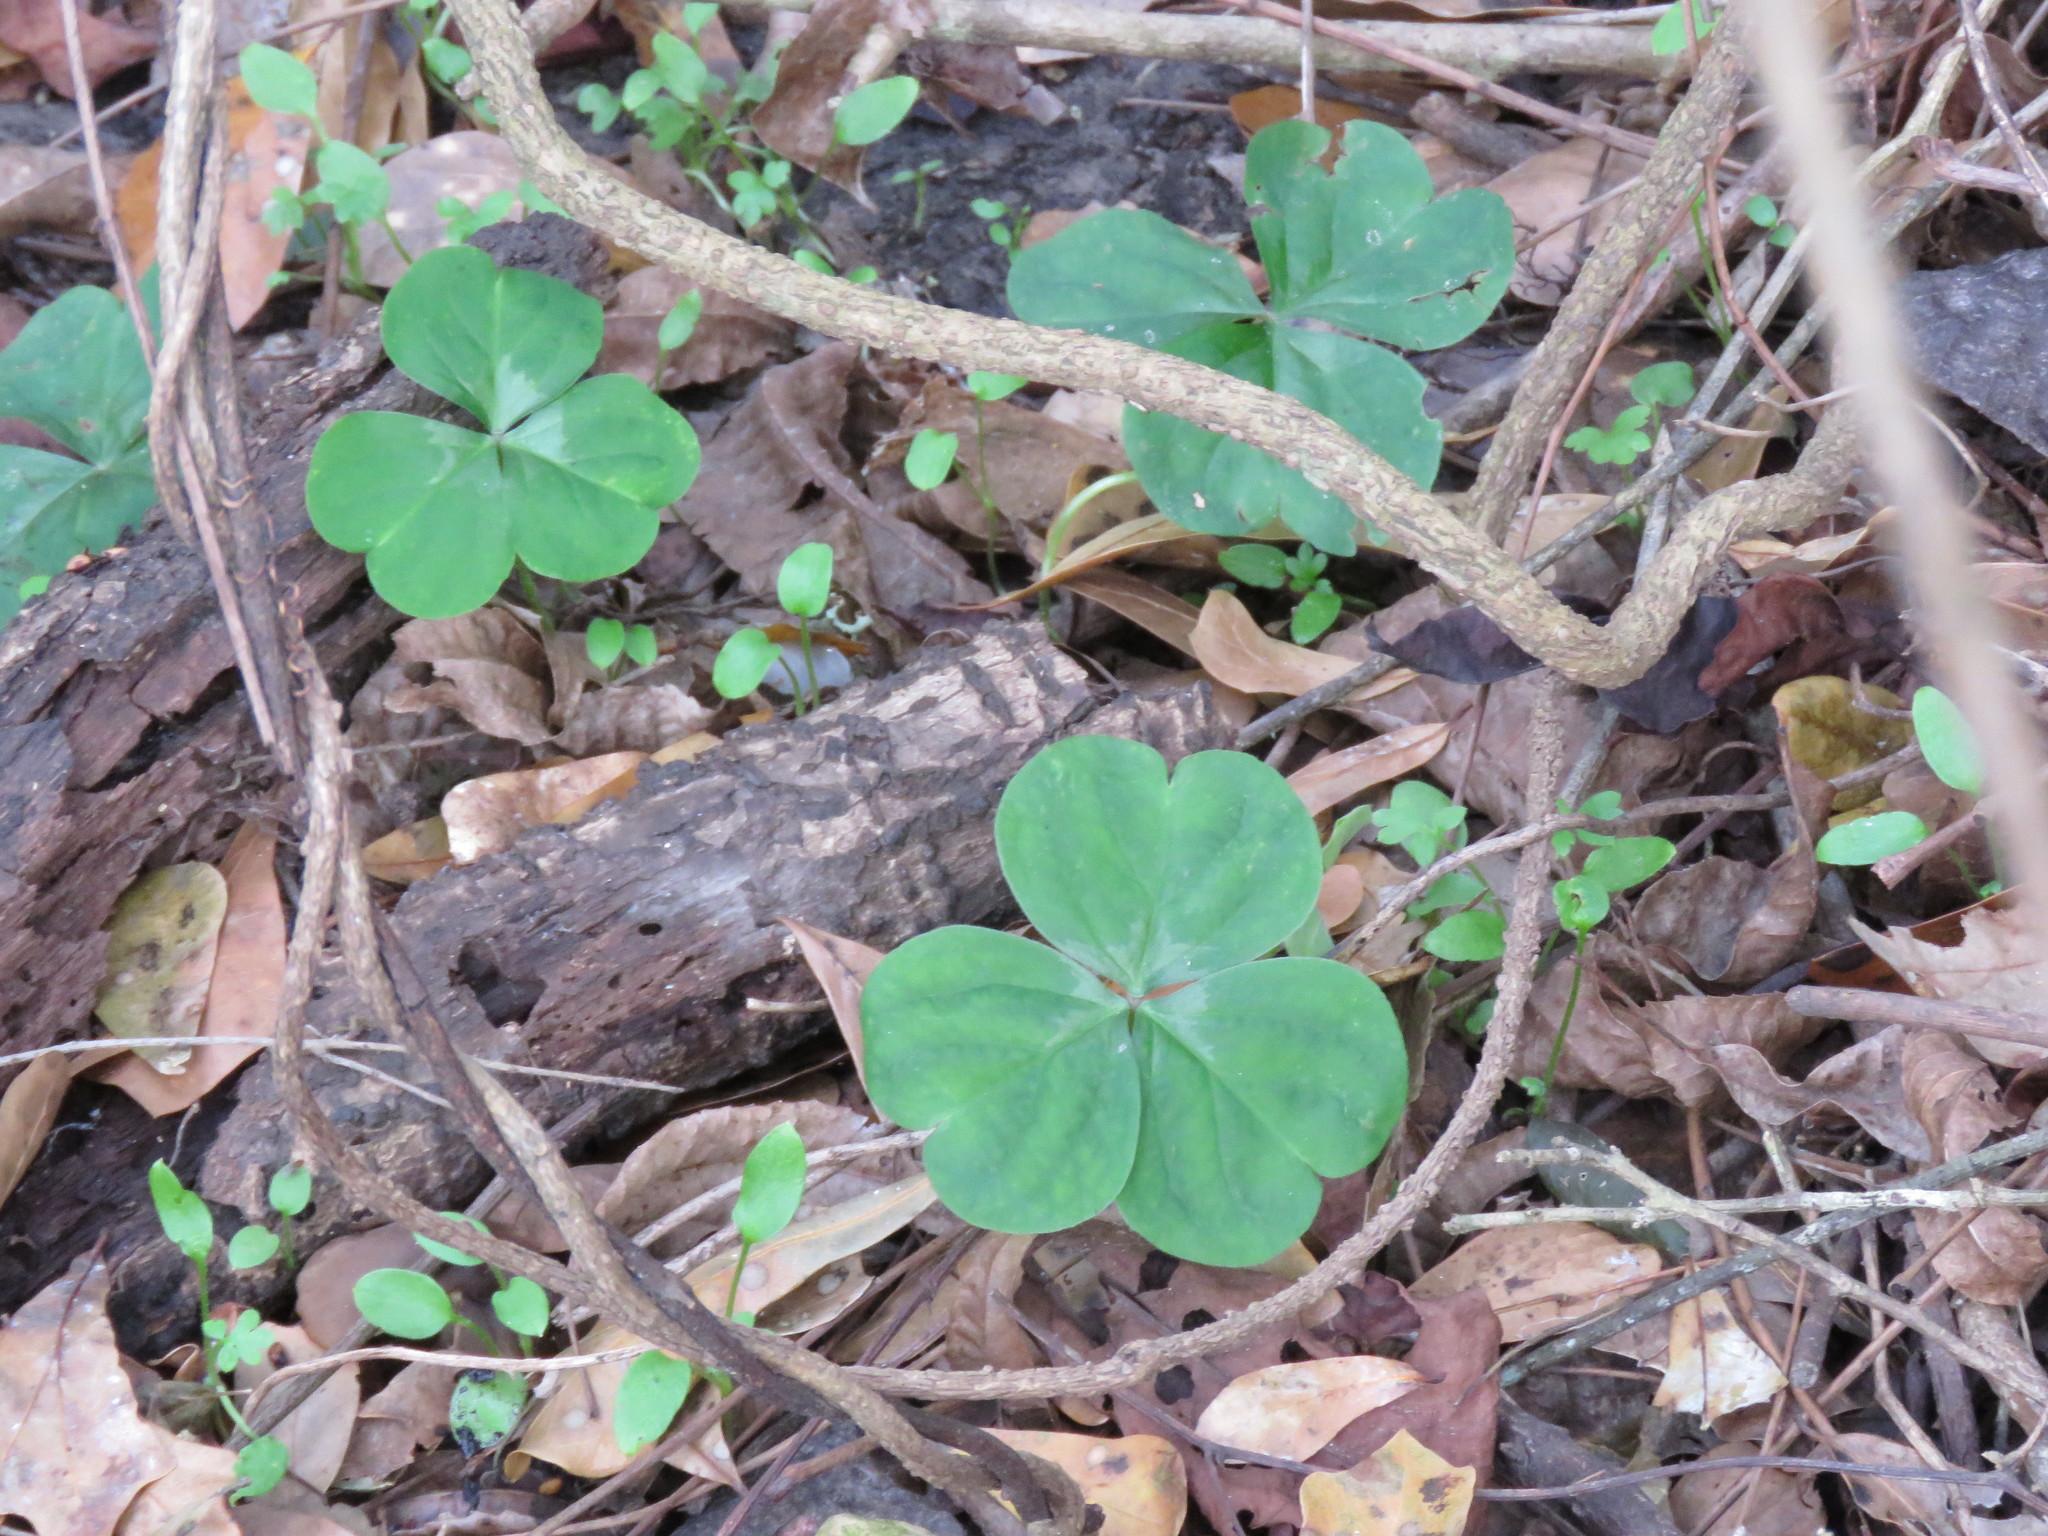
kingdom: Plantae
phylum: Tracheophyta
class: Magnoliopsida
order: Oxalidales
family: Oxalidaceae
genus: Oxalis
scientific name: Oxalis debilis
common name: Large-flowered pink-sorrel
